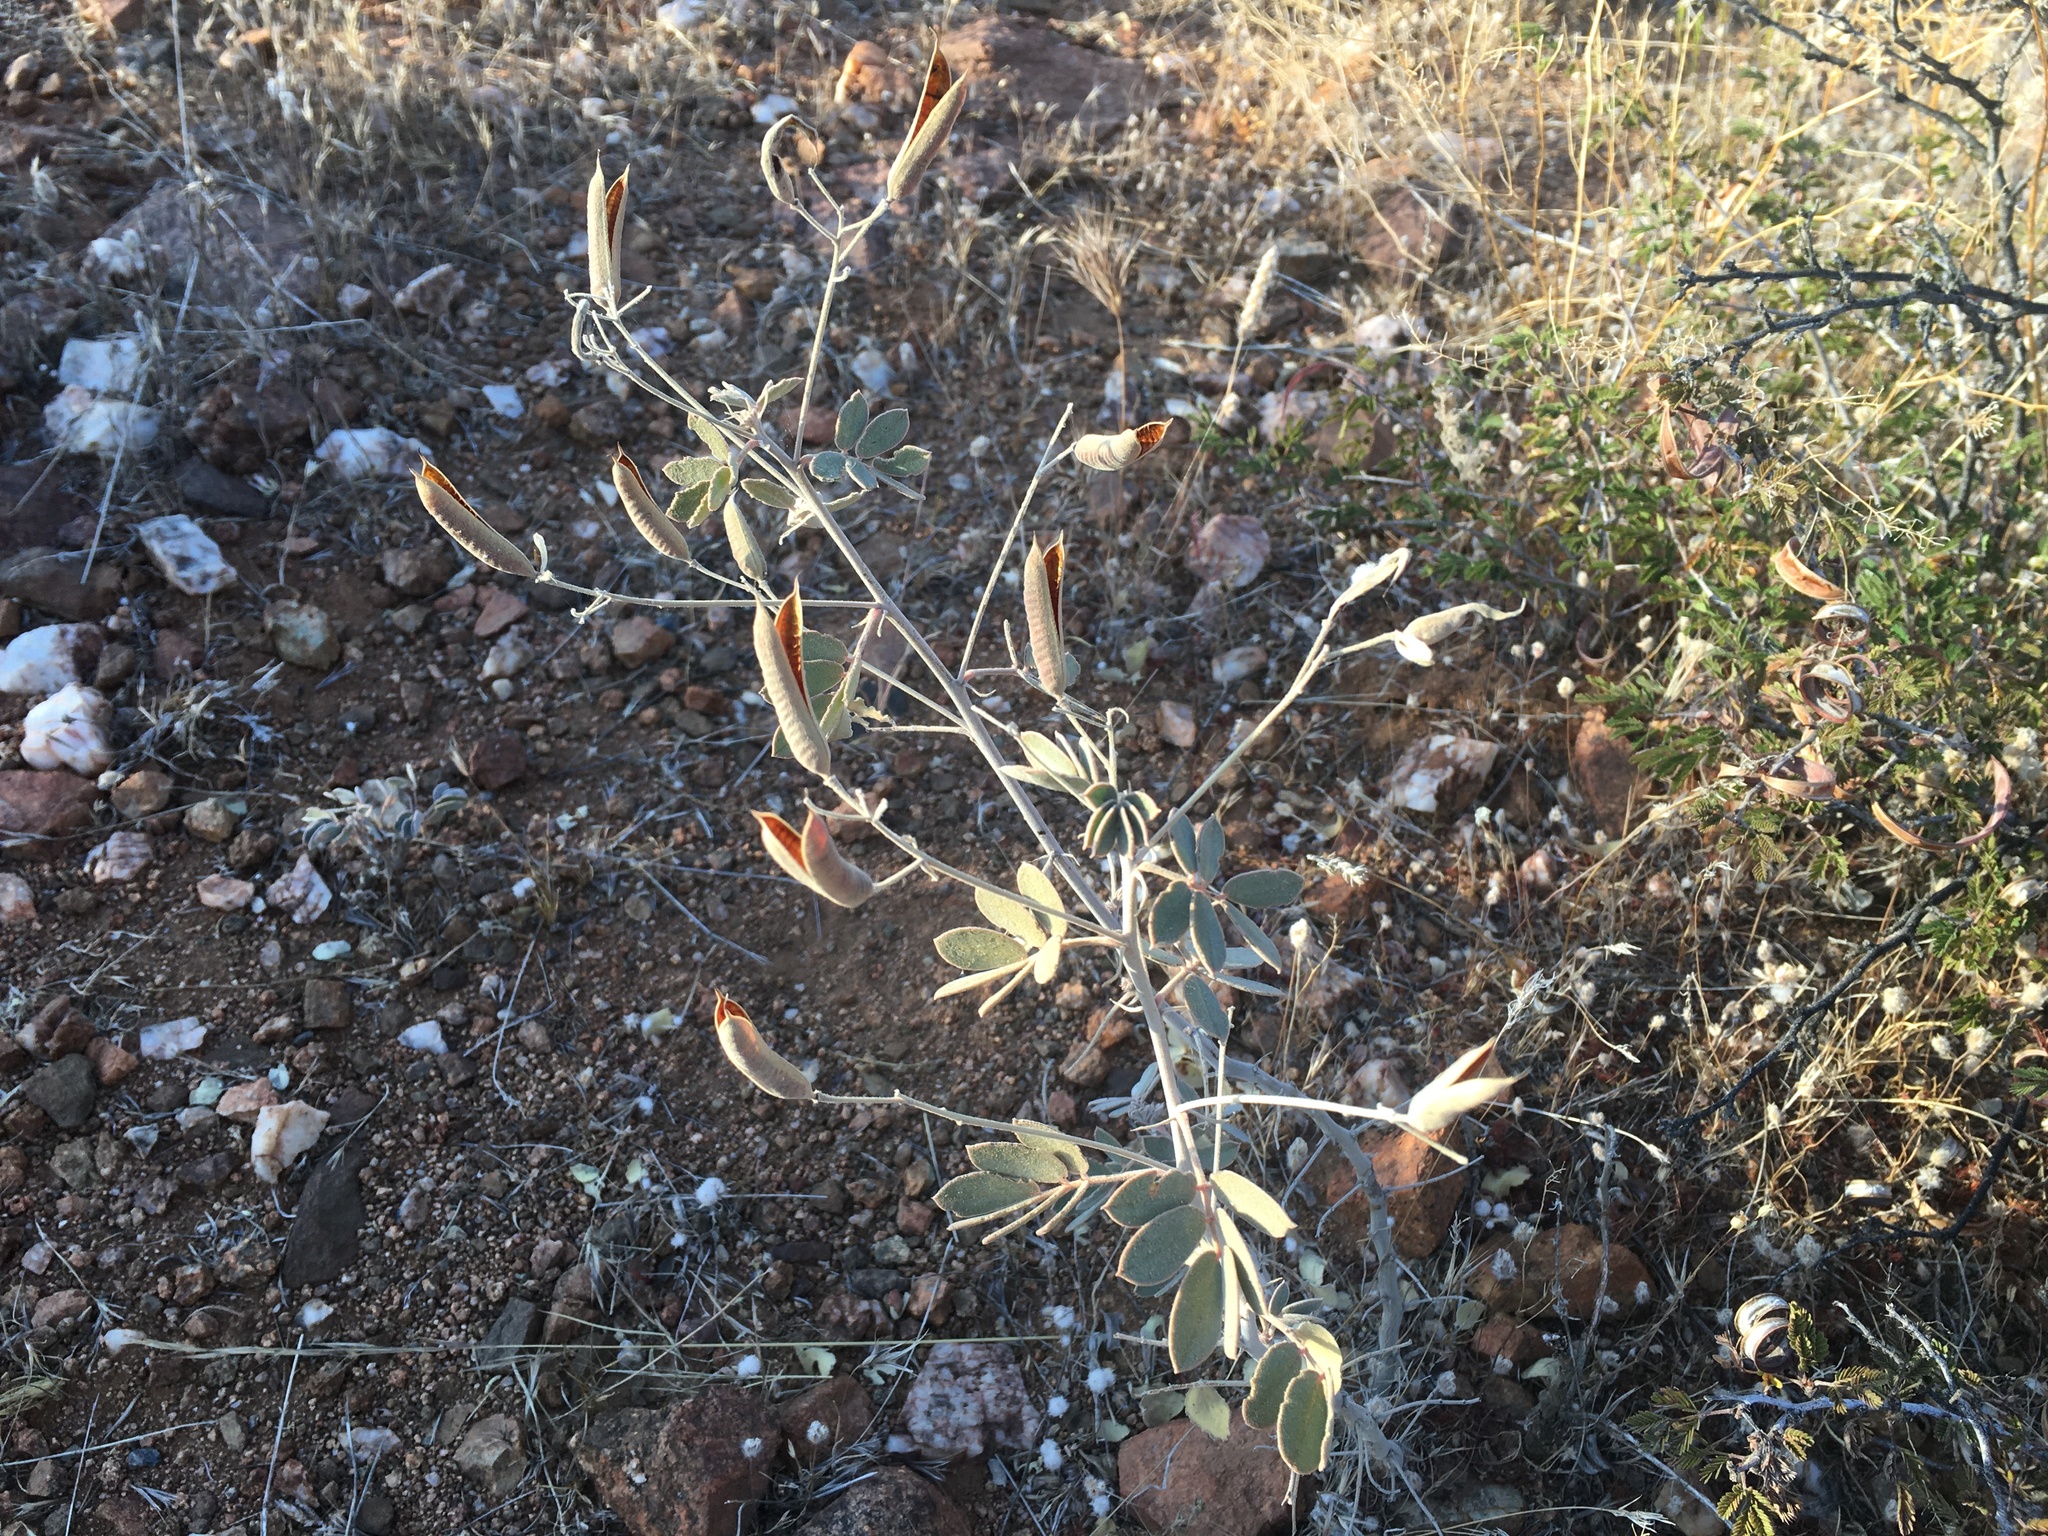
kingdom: Plantae
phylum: Tracheophyta
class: Magnoliopsida
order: Fabales
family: Fabaceae
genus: Senna
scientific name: Senna covesii
